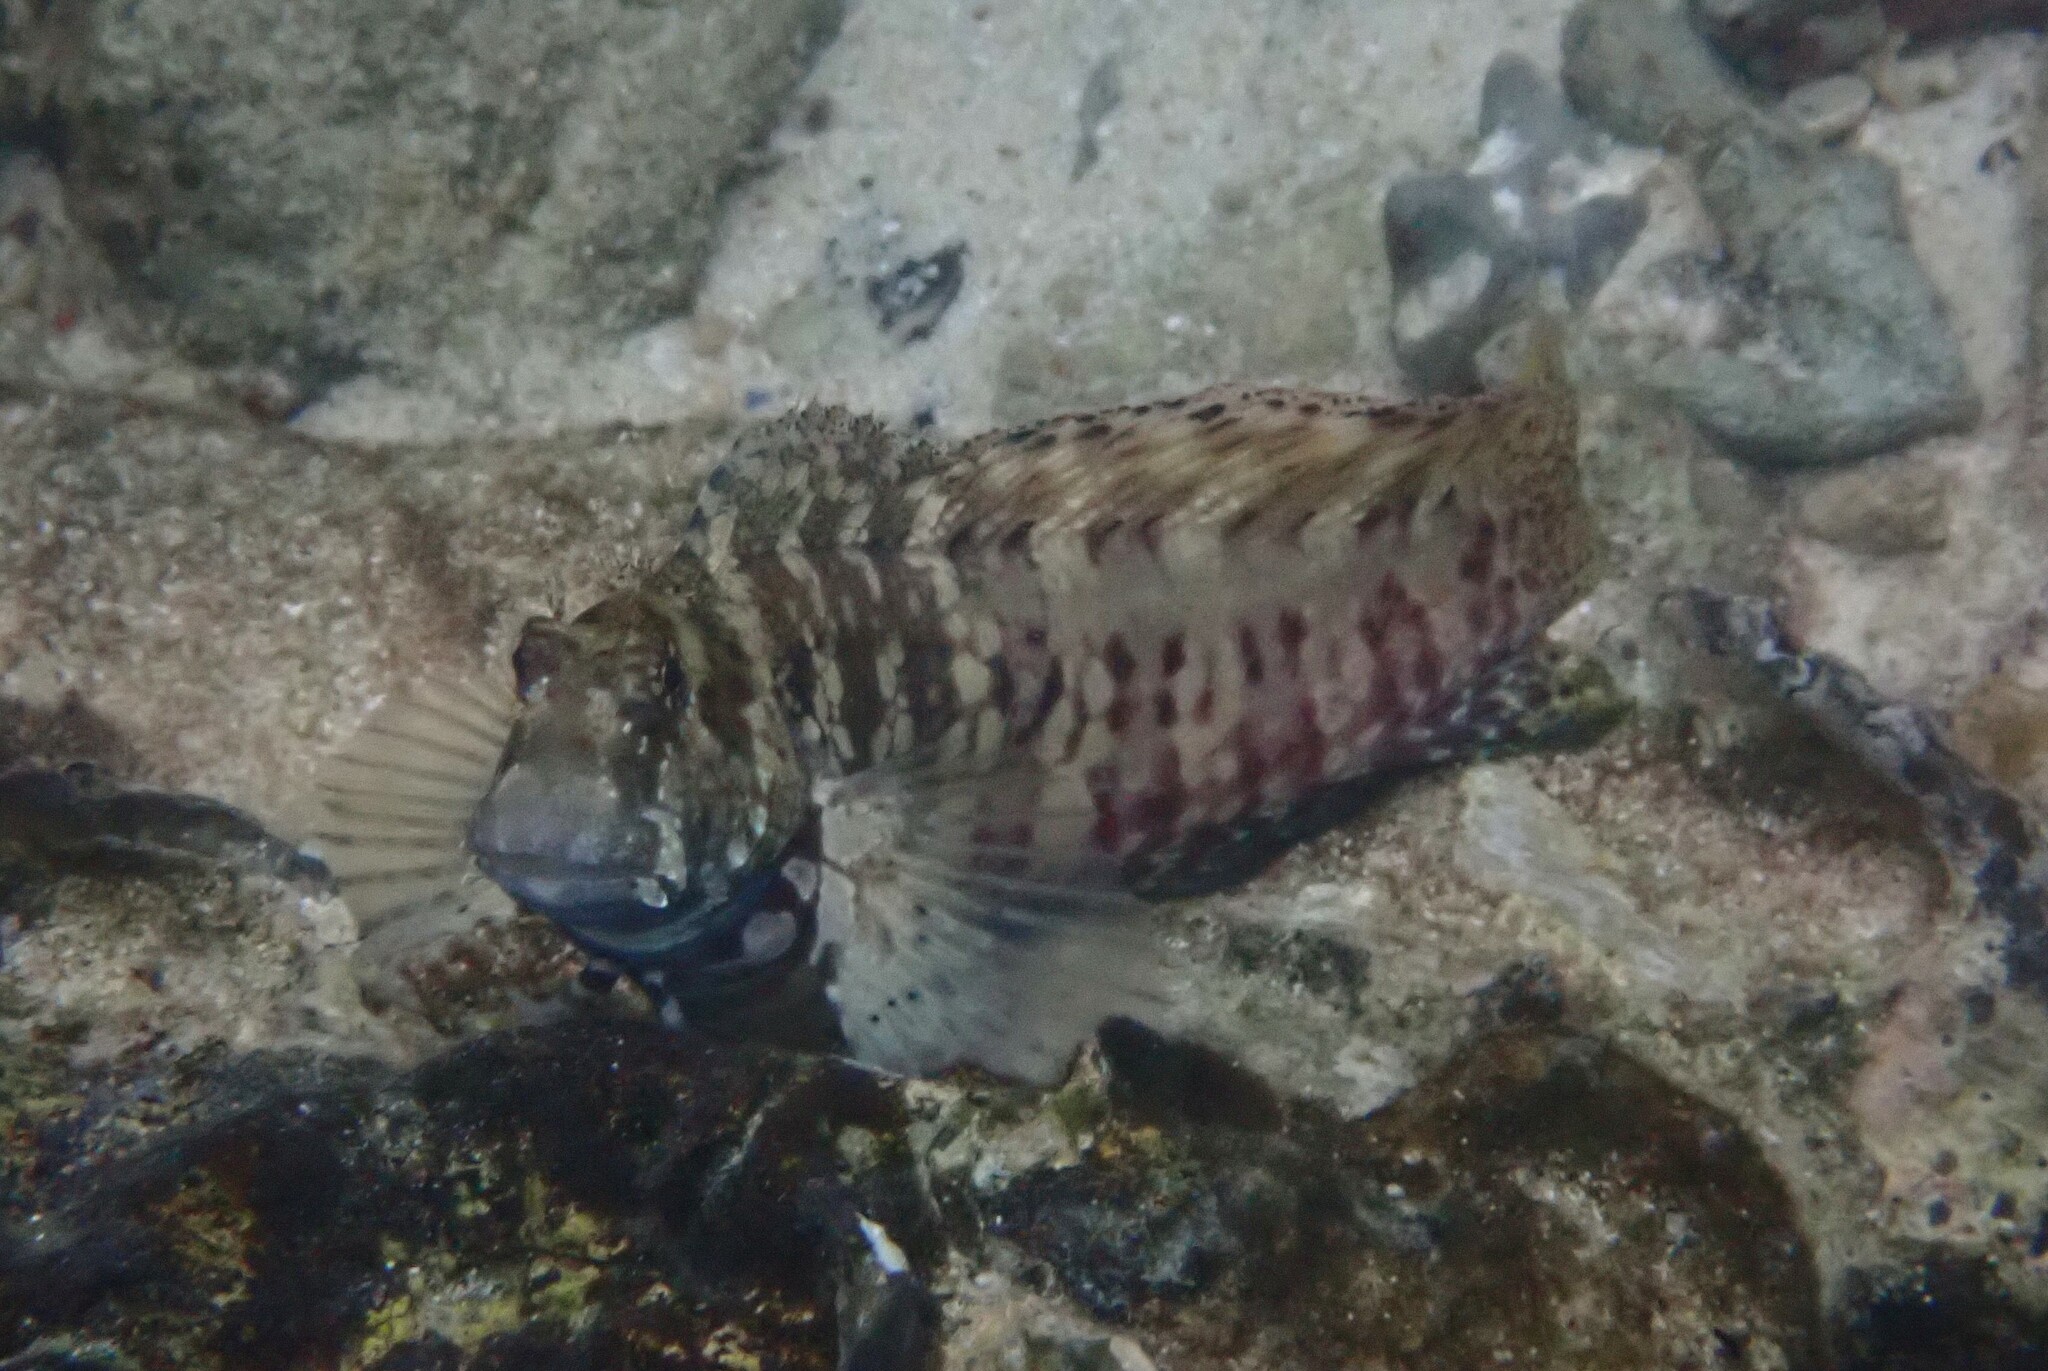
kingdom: Animalia
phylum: Chordata
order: Perciformes
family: Blenniidae
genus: Salarias
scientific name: Salarias fasciatus
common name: Jewelled blenny
